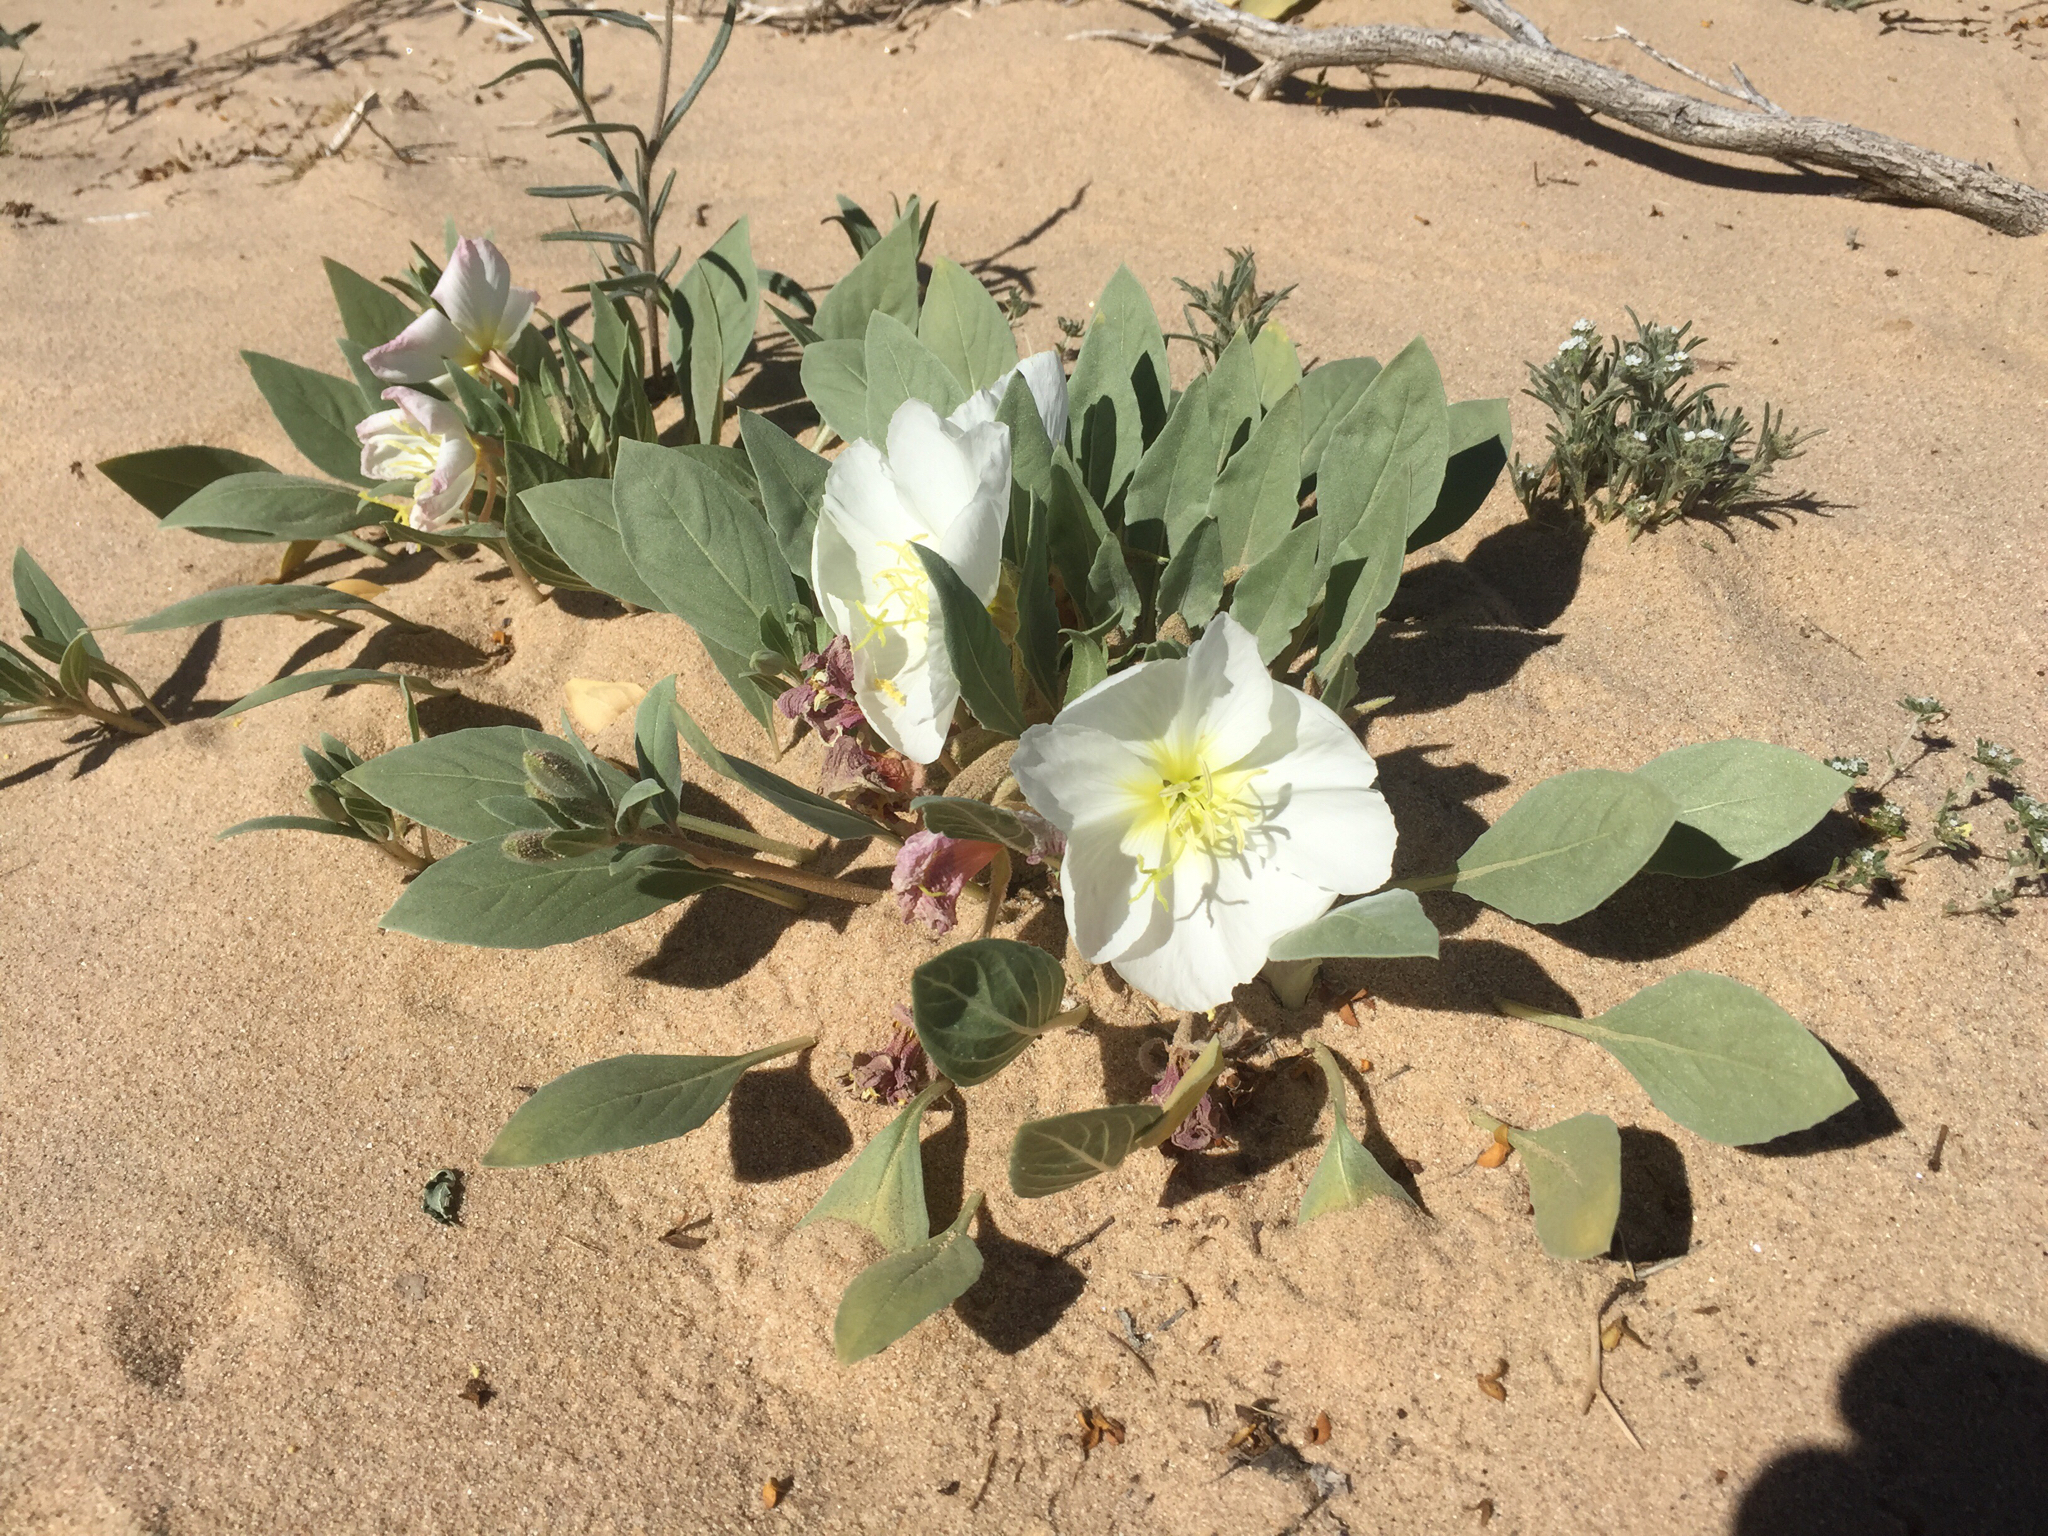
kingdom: Plantae
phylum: Tracheophyta
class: Magnoliopsida
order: Myrtales
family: Onagraceae
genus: Oenothera
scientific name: Oenothera deltoides
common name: Basket evening-primrose
